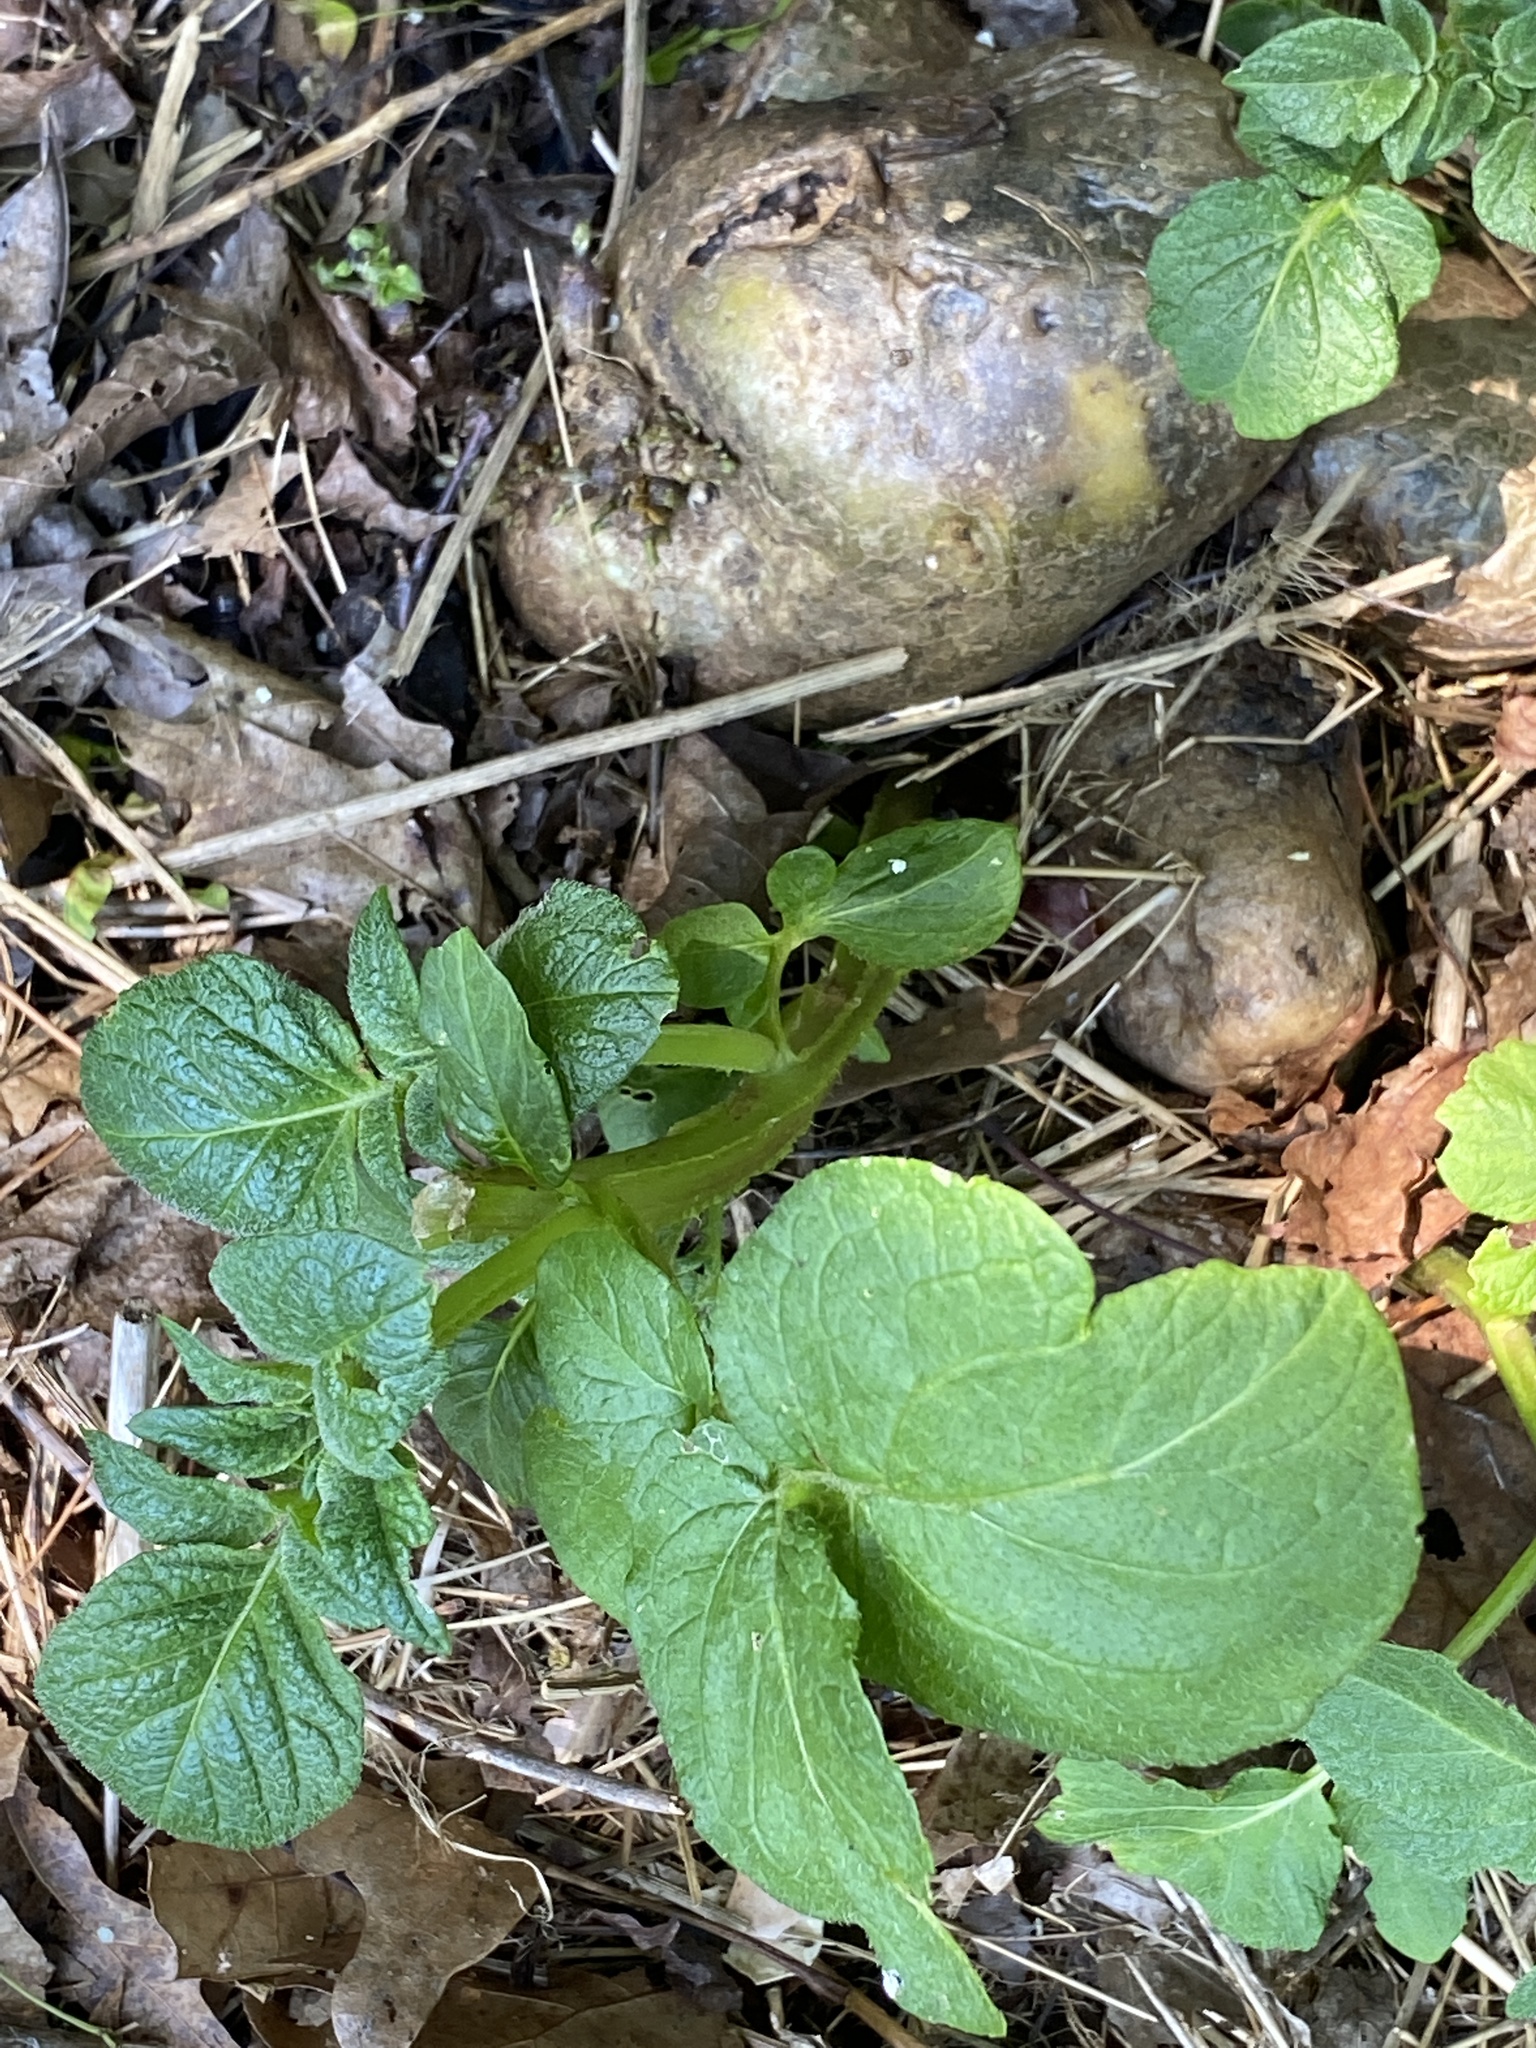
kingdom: Plantae
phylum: Tracheophyta
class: Magnoliopsida
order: Solanales
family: Solanaceae
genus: Solanum
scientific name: Solanum tuberosum
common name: Potato
